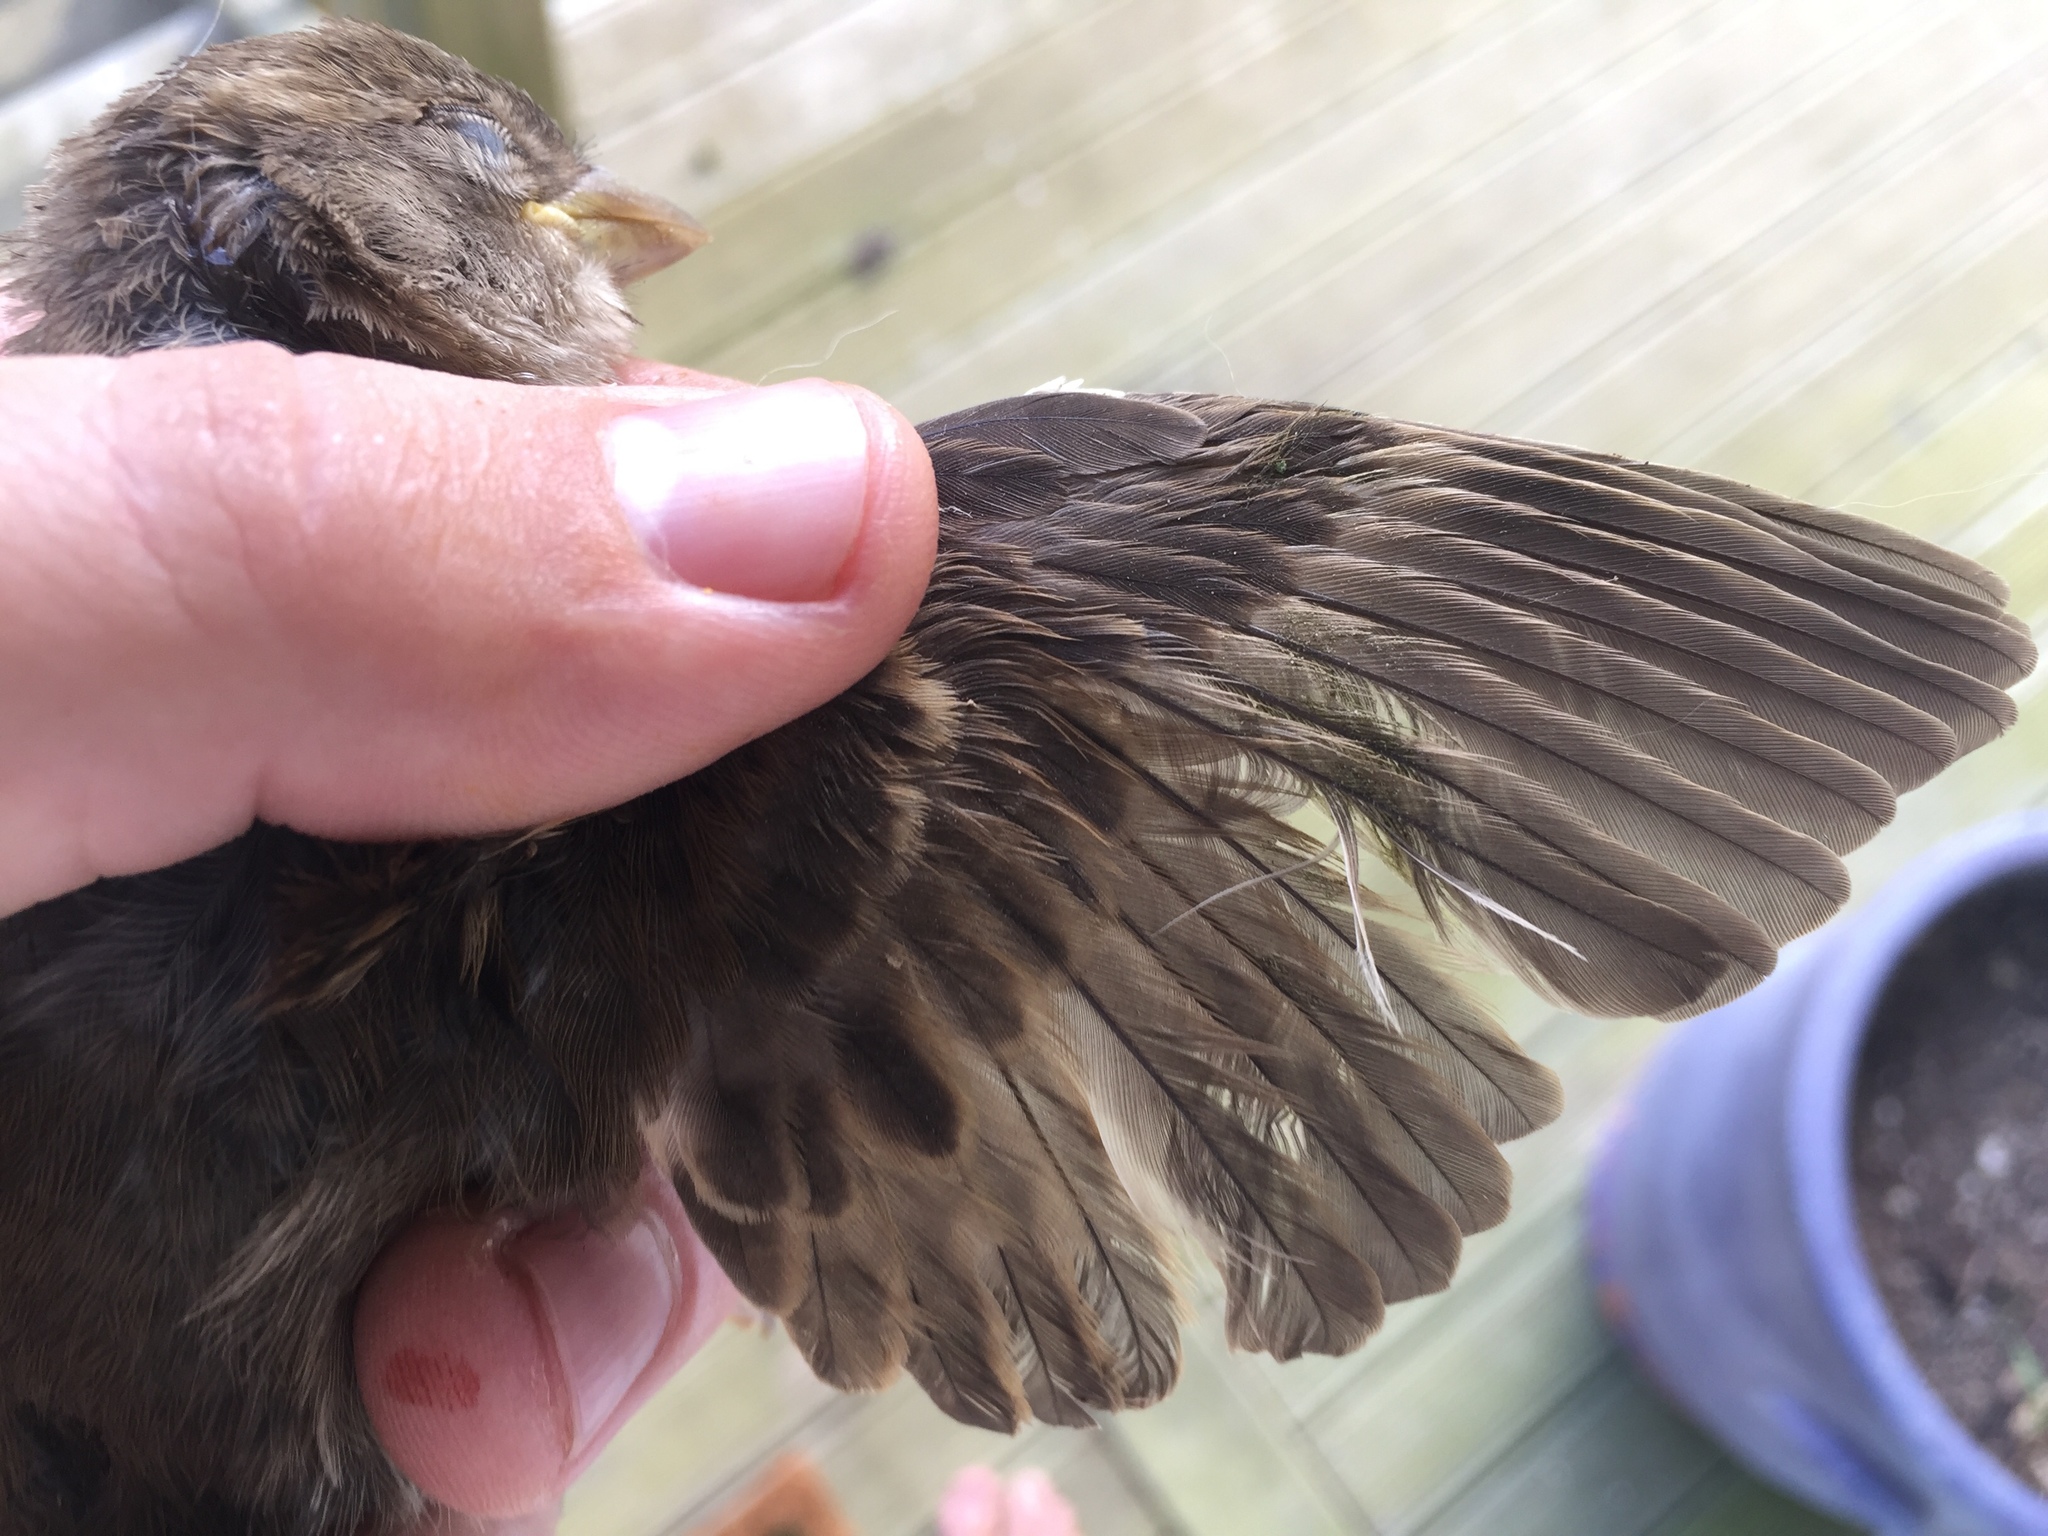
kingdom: Animalia
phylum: Chordata
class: Aves
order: Passeriformes
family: Passeridae
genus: Passer
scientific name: Passer domesticus
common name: House sparrow
